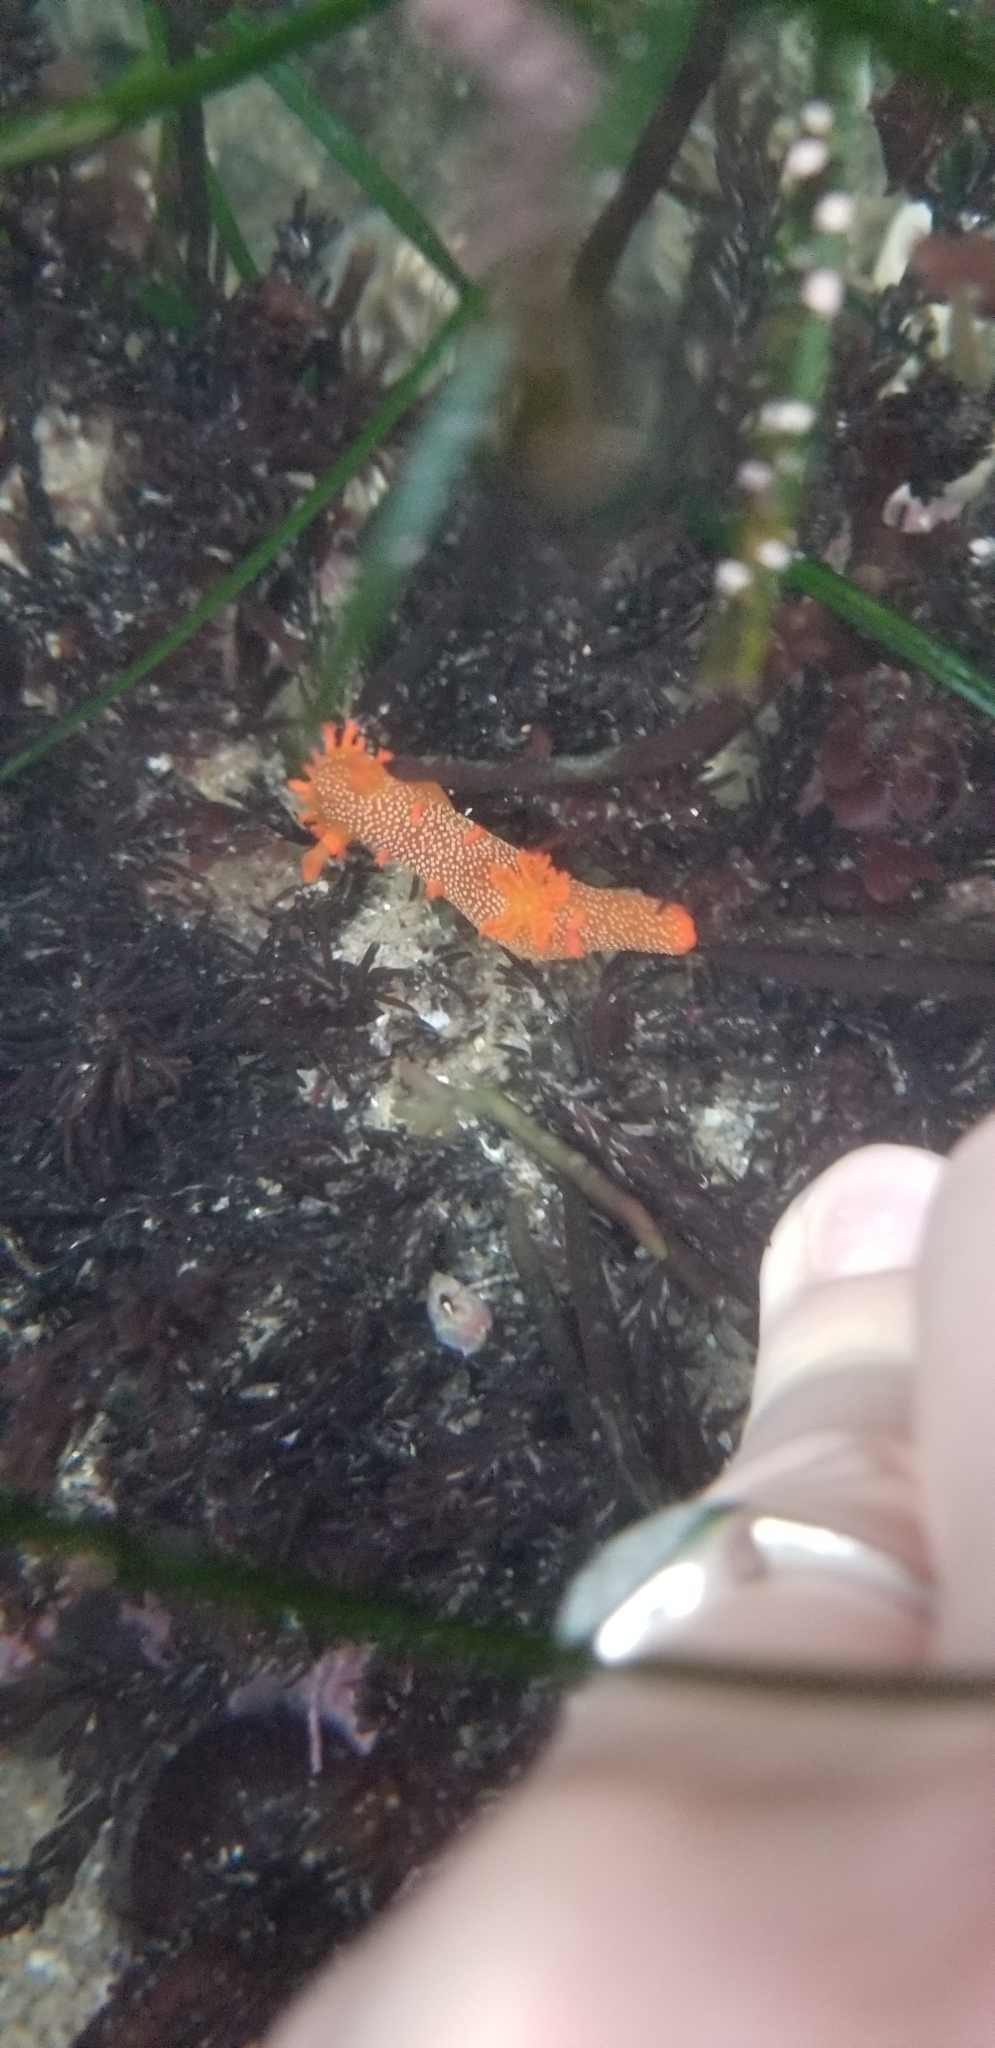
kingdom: Animalia
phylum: Mollusca
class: Gastropoda
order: Nudibranchia
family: Polyceridae
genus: Triopha
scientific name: Triopha maculata
